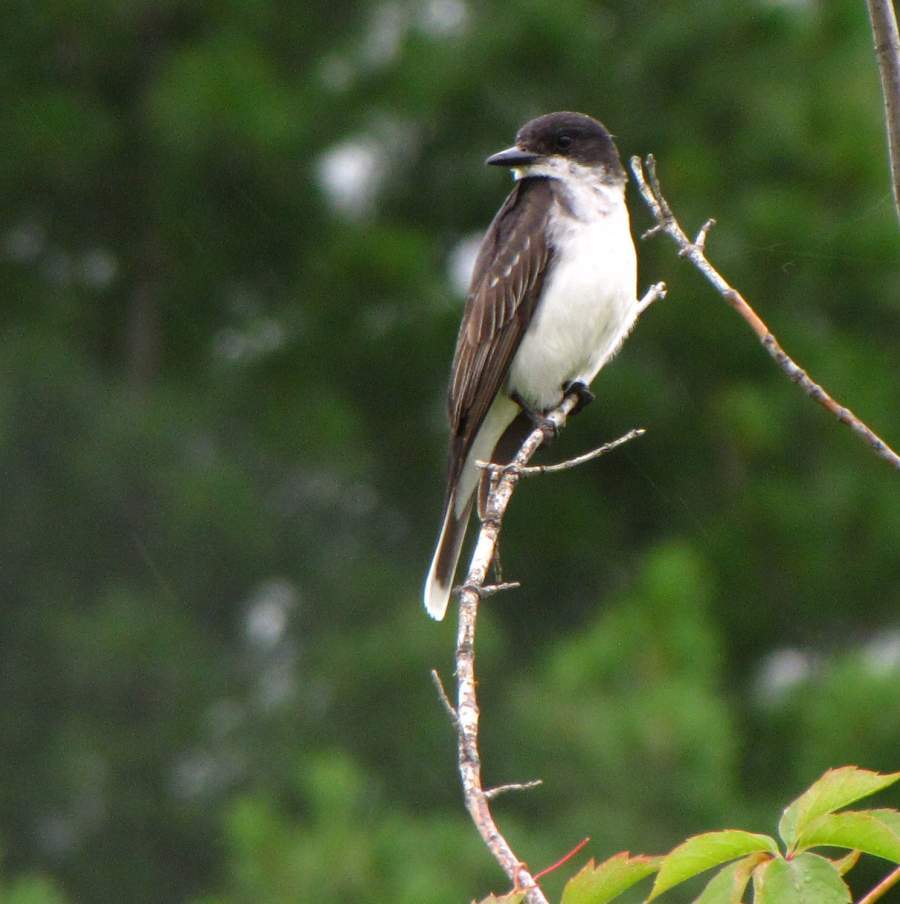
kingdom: Animalia
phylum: Chordata
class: Aves
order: Passeriformes
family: Tyrannidae
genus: Tyrannus
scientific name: Tyrannus tyrannus
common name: Eastern kingbird
